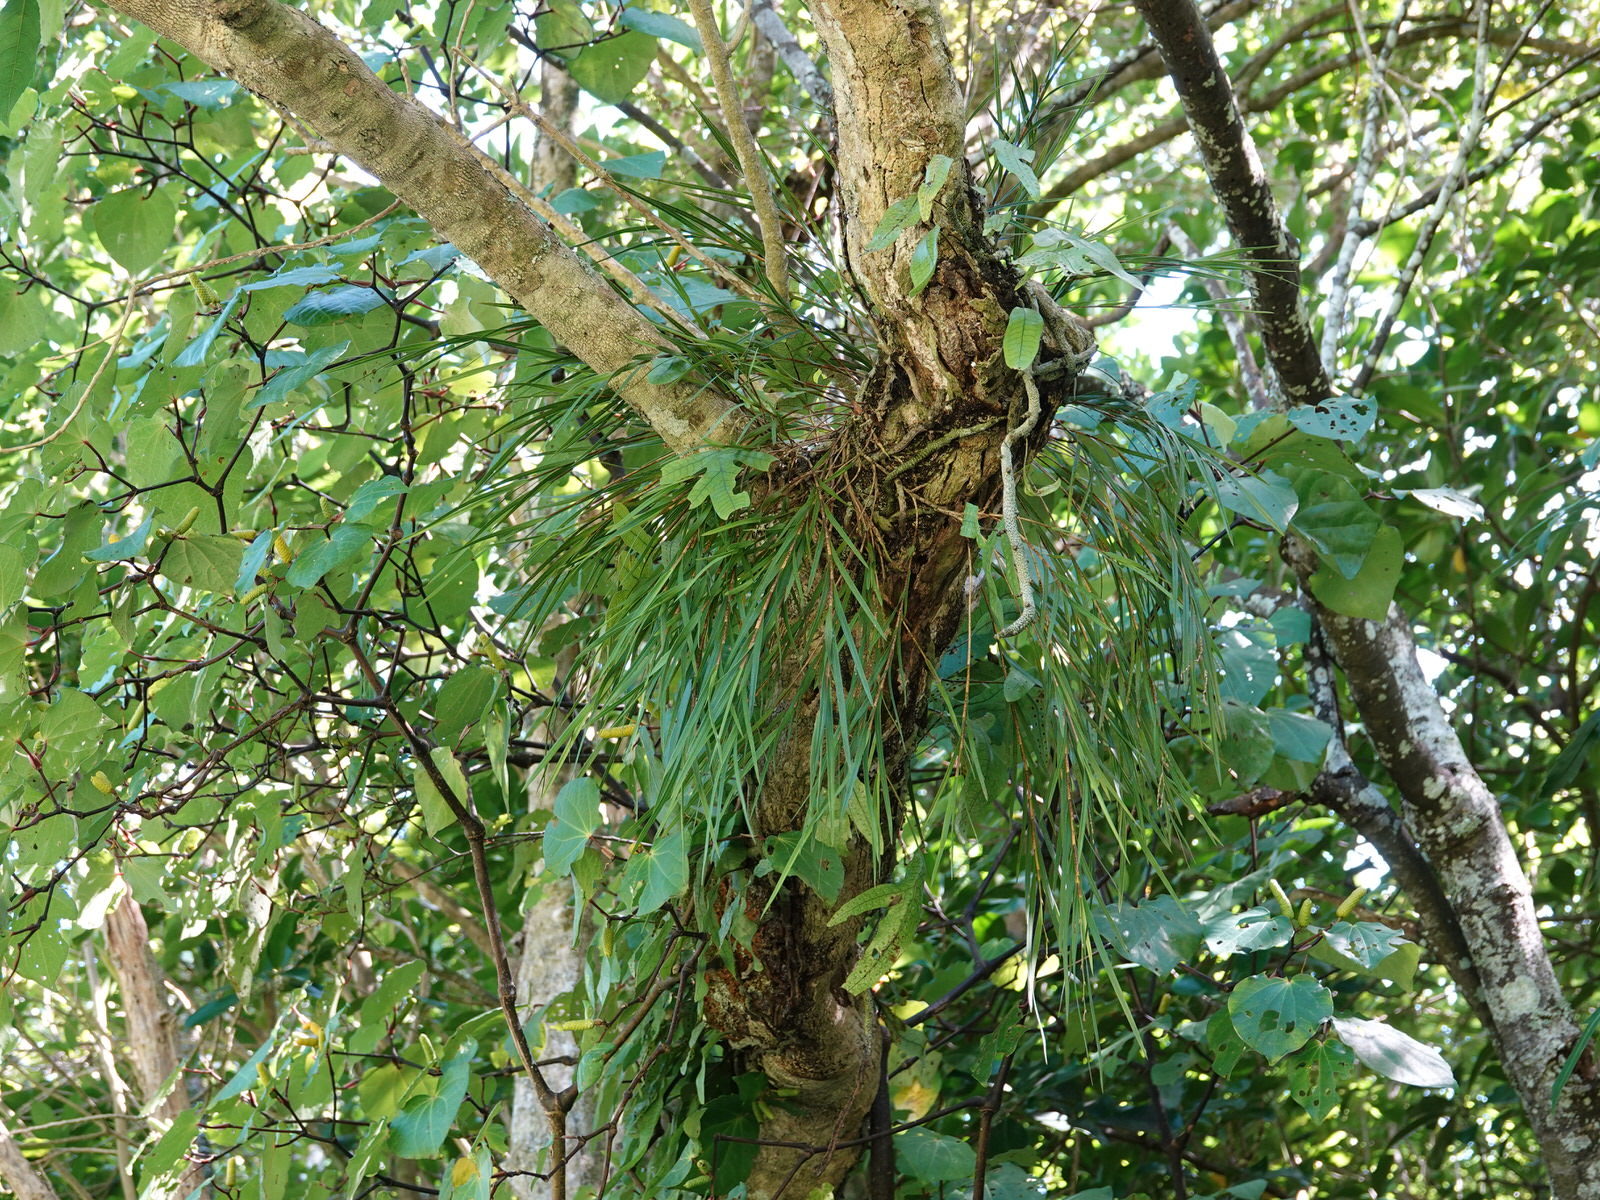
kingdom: Plantae
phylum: Tracheophyta
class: Liliopsida
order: Asparagales
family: Orchidaceae
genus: Earina
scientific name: Earina mucronata
